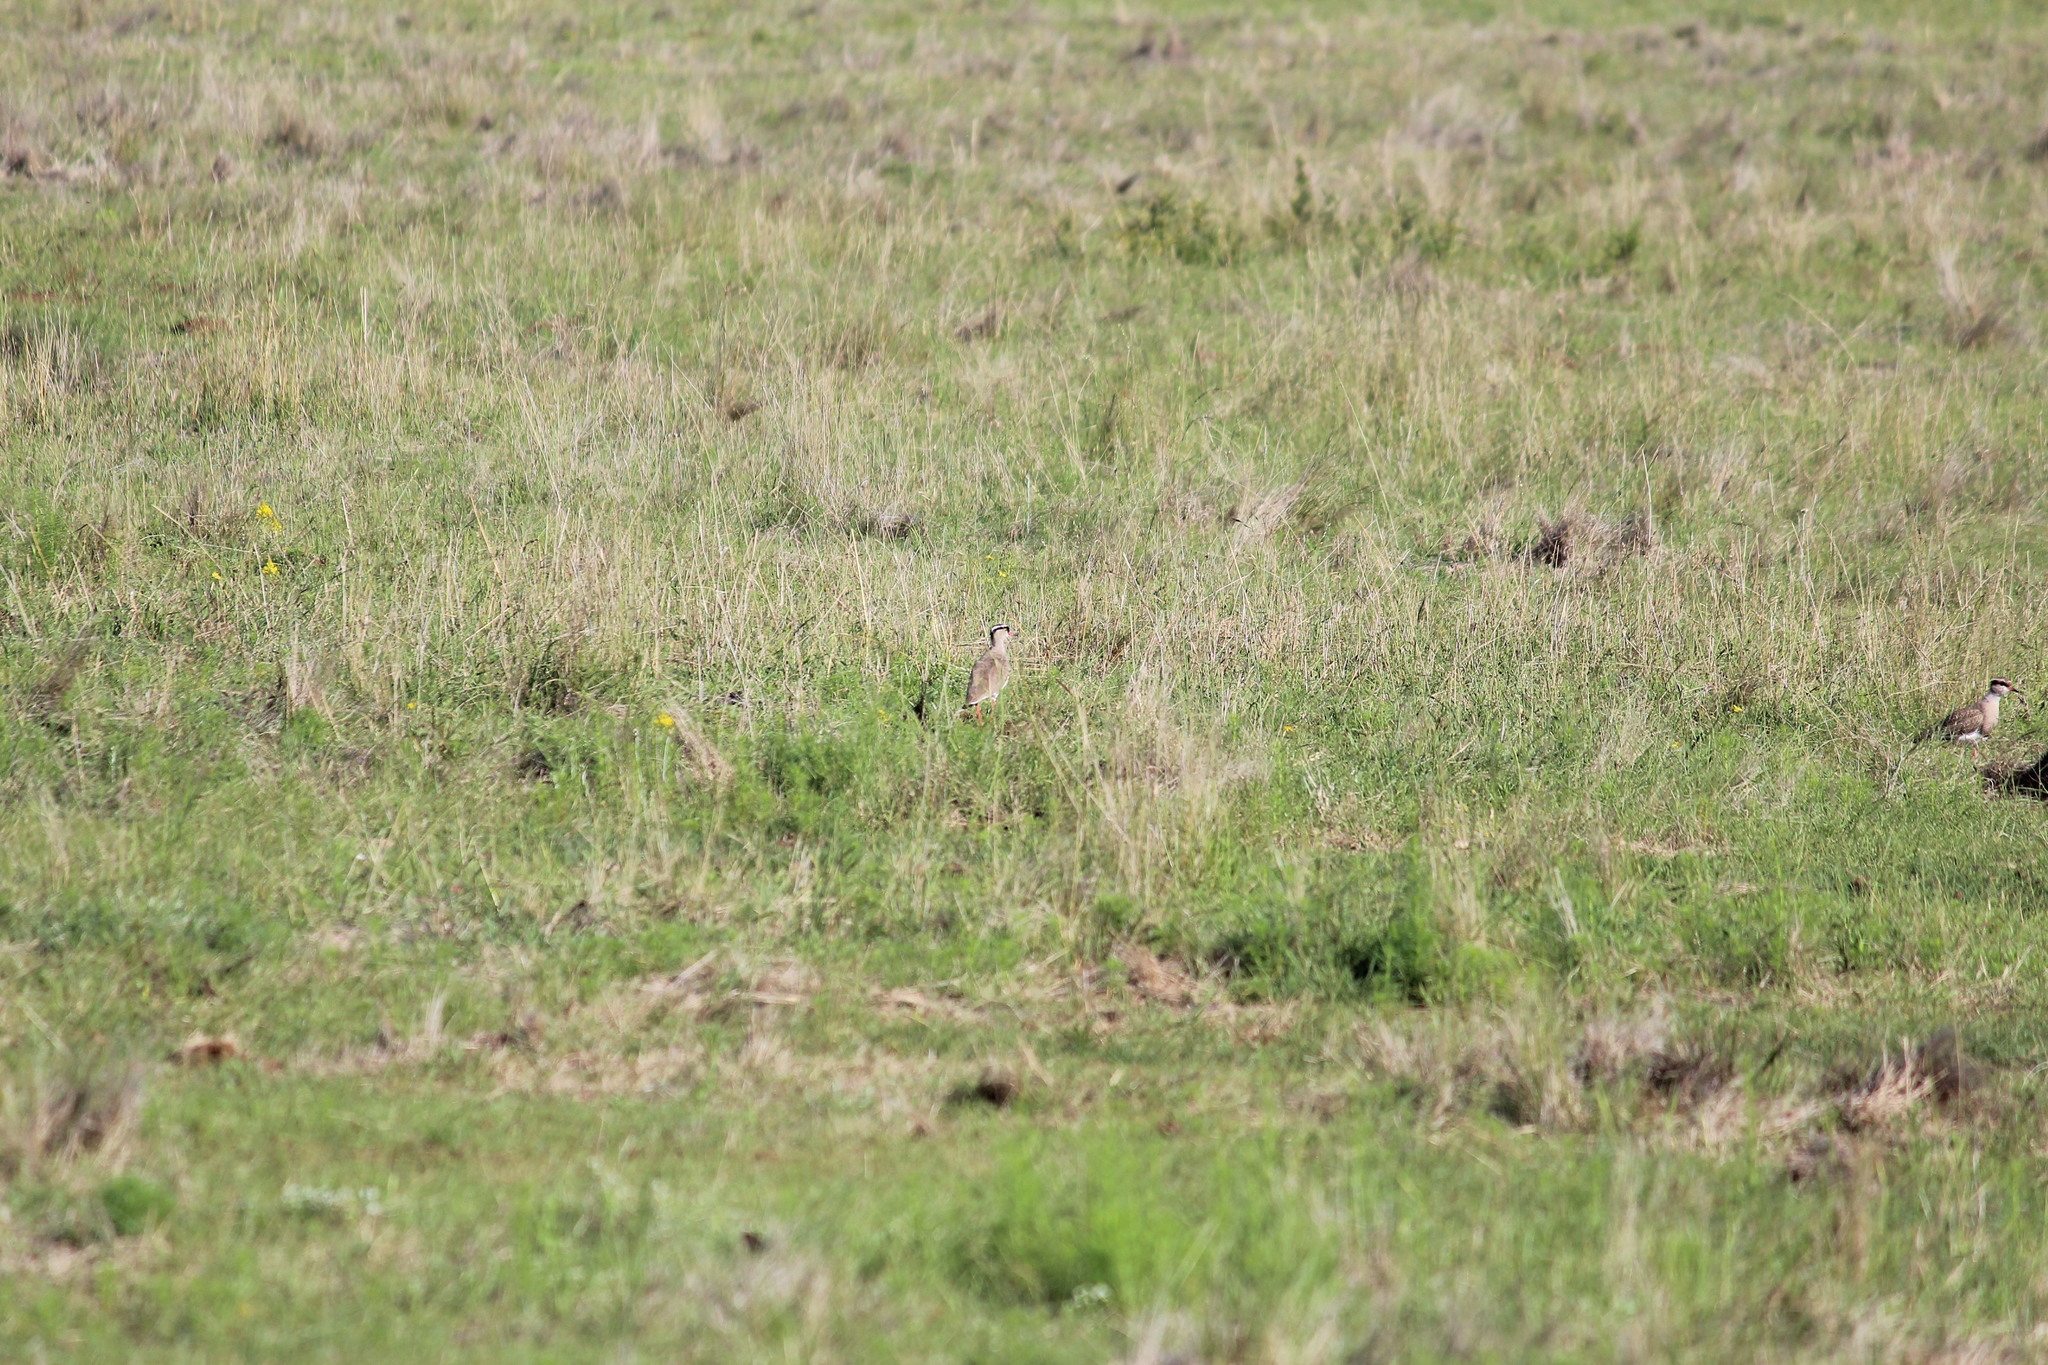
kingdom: Animalia
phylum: Chordata
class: Aves
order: Charadriiformes
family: Charadriidae
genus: Vanellus
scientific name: Vanellus coronatus
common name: Crowned lapwing
